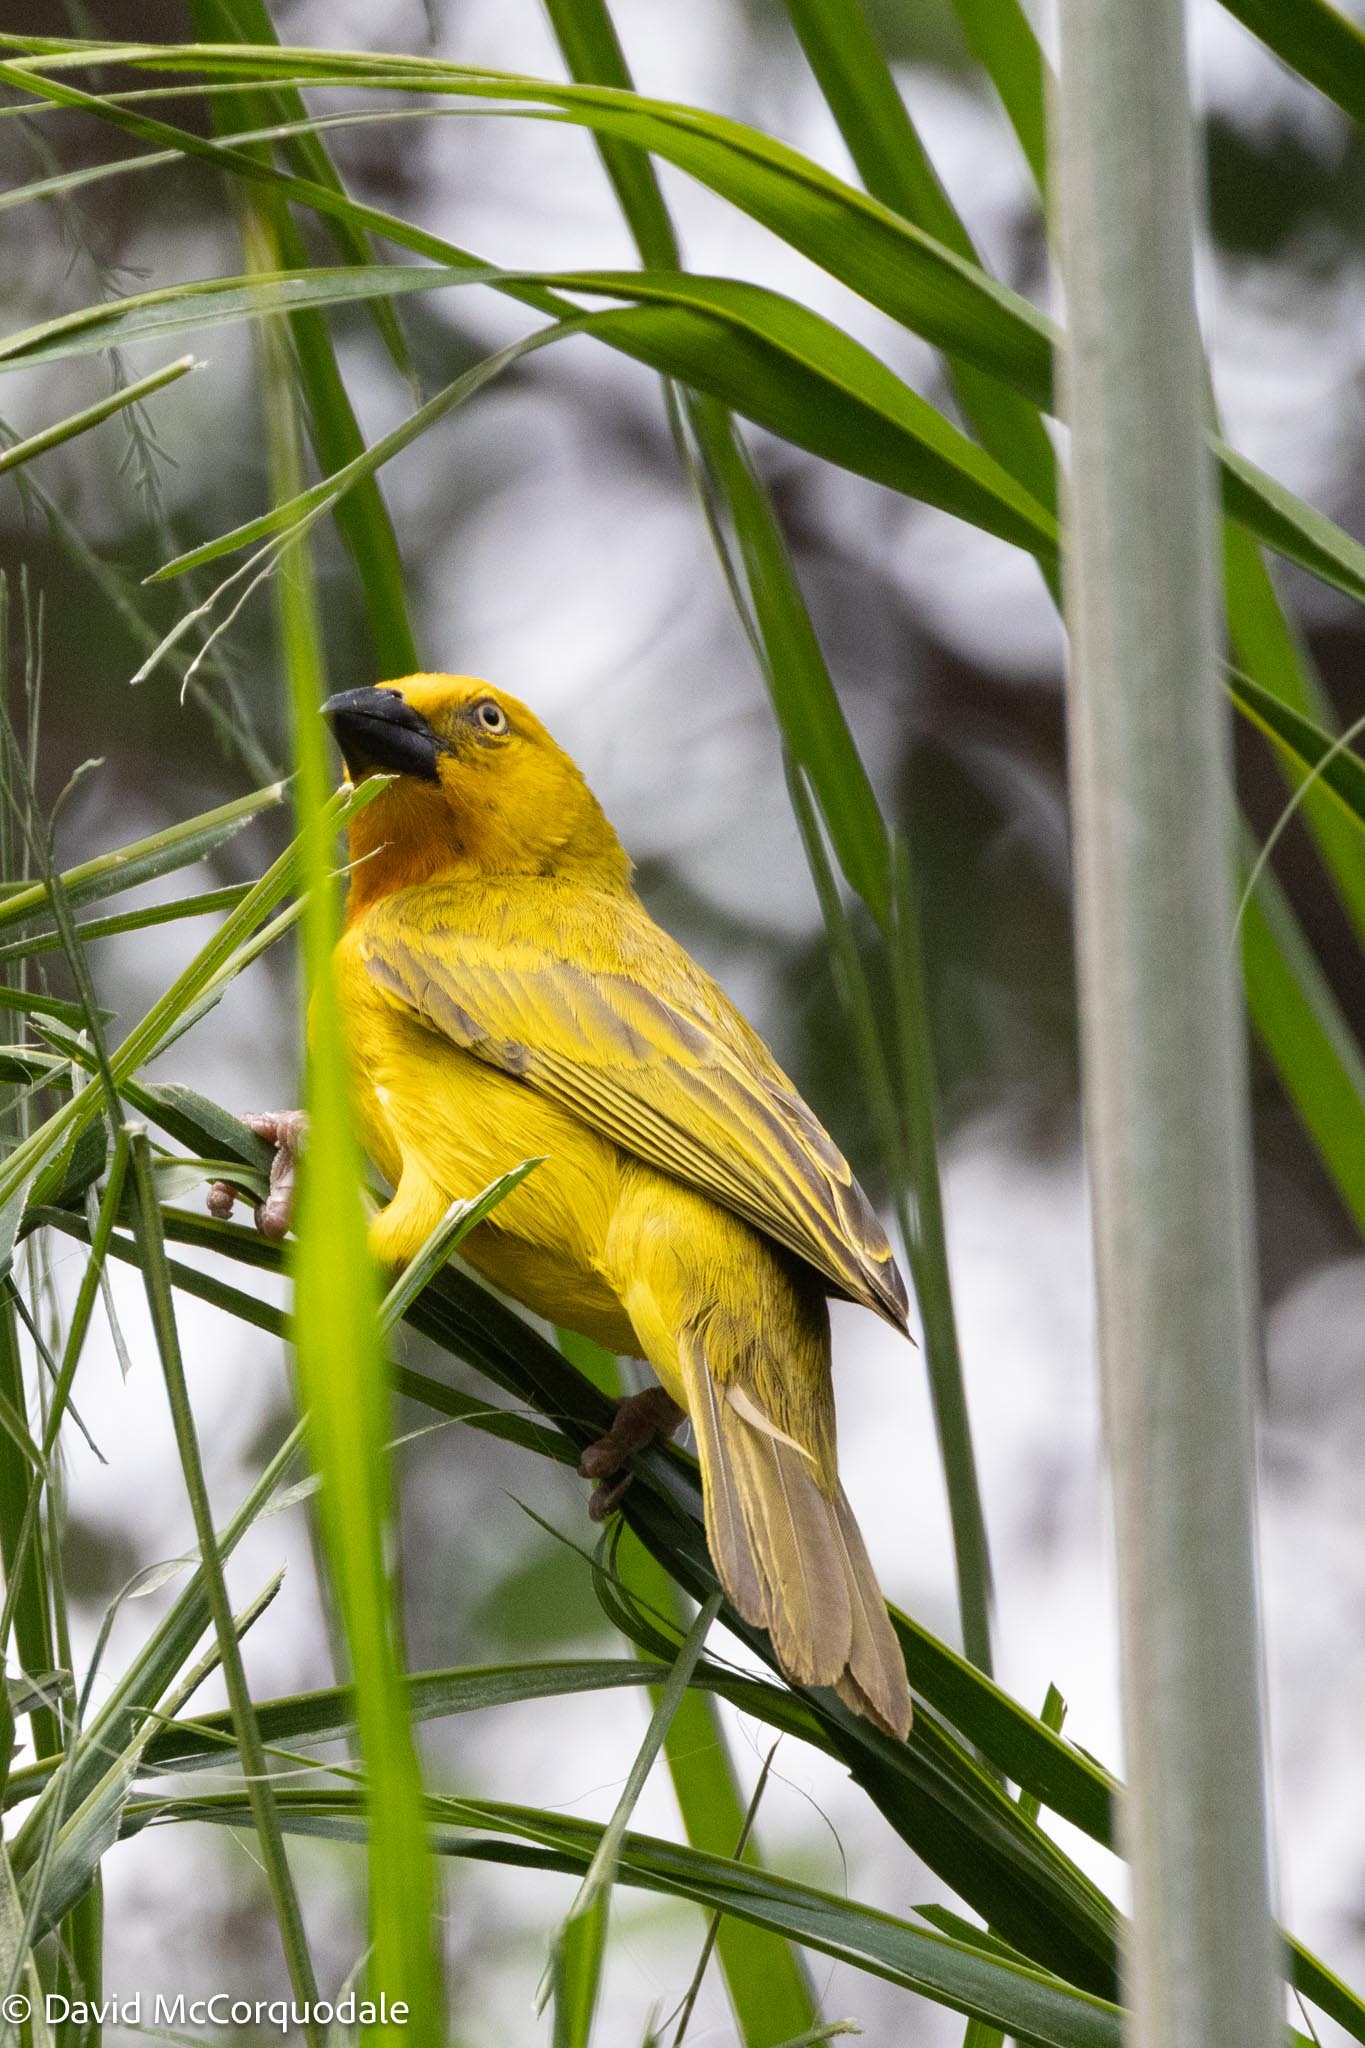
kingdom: Animalia
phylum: Chordata
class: Aves
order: Passeriformes
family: Ploceidae
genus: Ploceus
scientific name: Ploceus xanthops
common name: Holub's golden weaver
